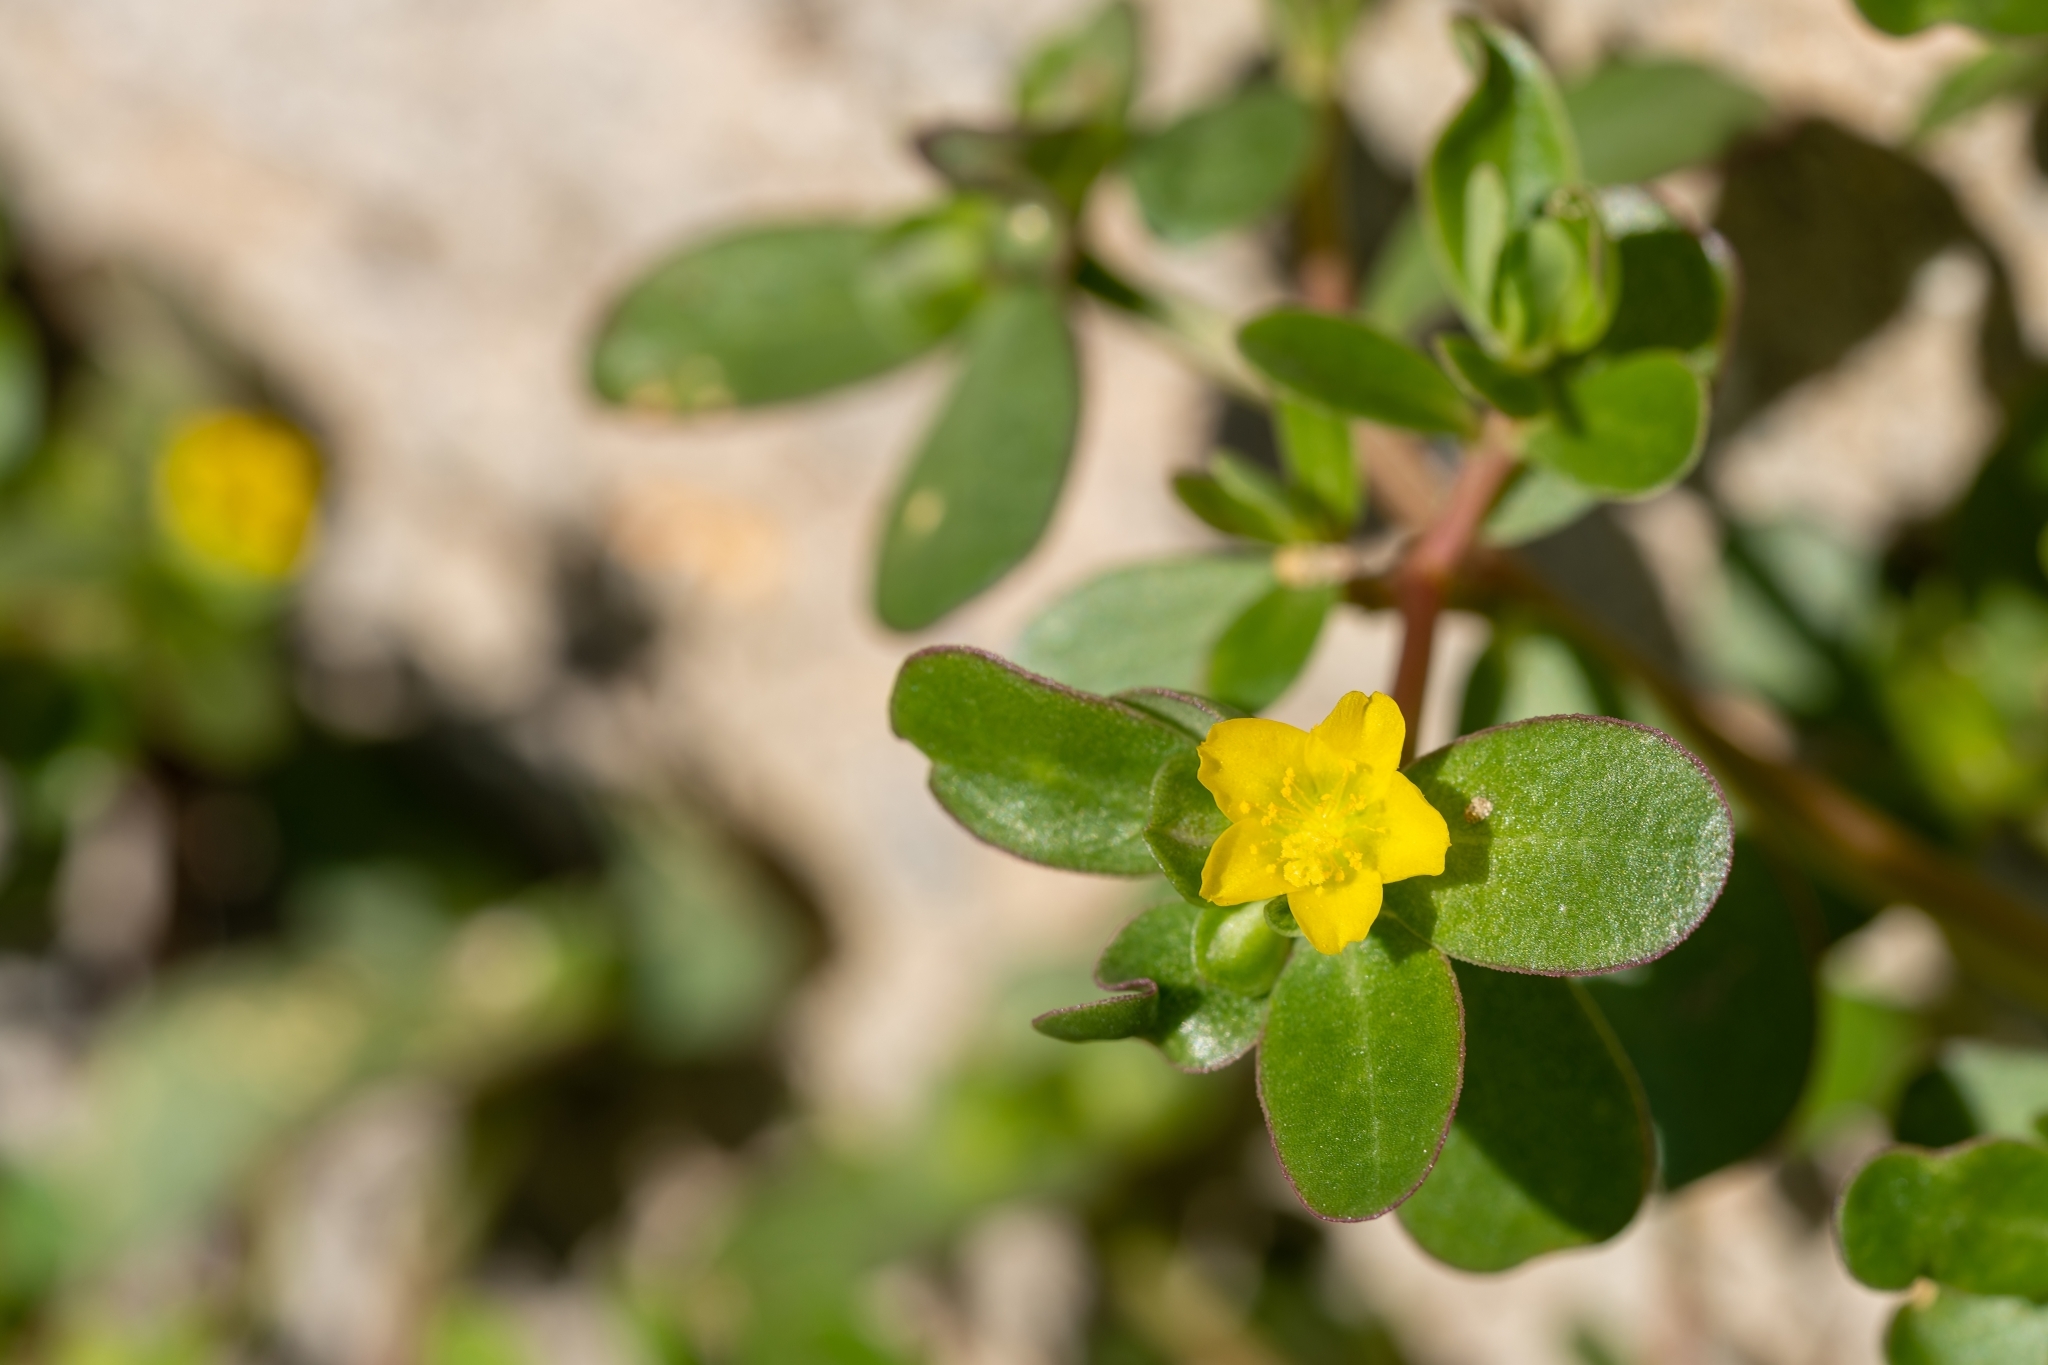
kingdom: Plantae
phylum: Tracheophyta
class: Magnoliopsida
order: Caryophyllales
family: Portulacaceae
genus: Portulaca
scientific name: Portulaca oleracea
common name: Common purslane
